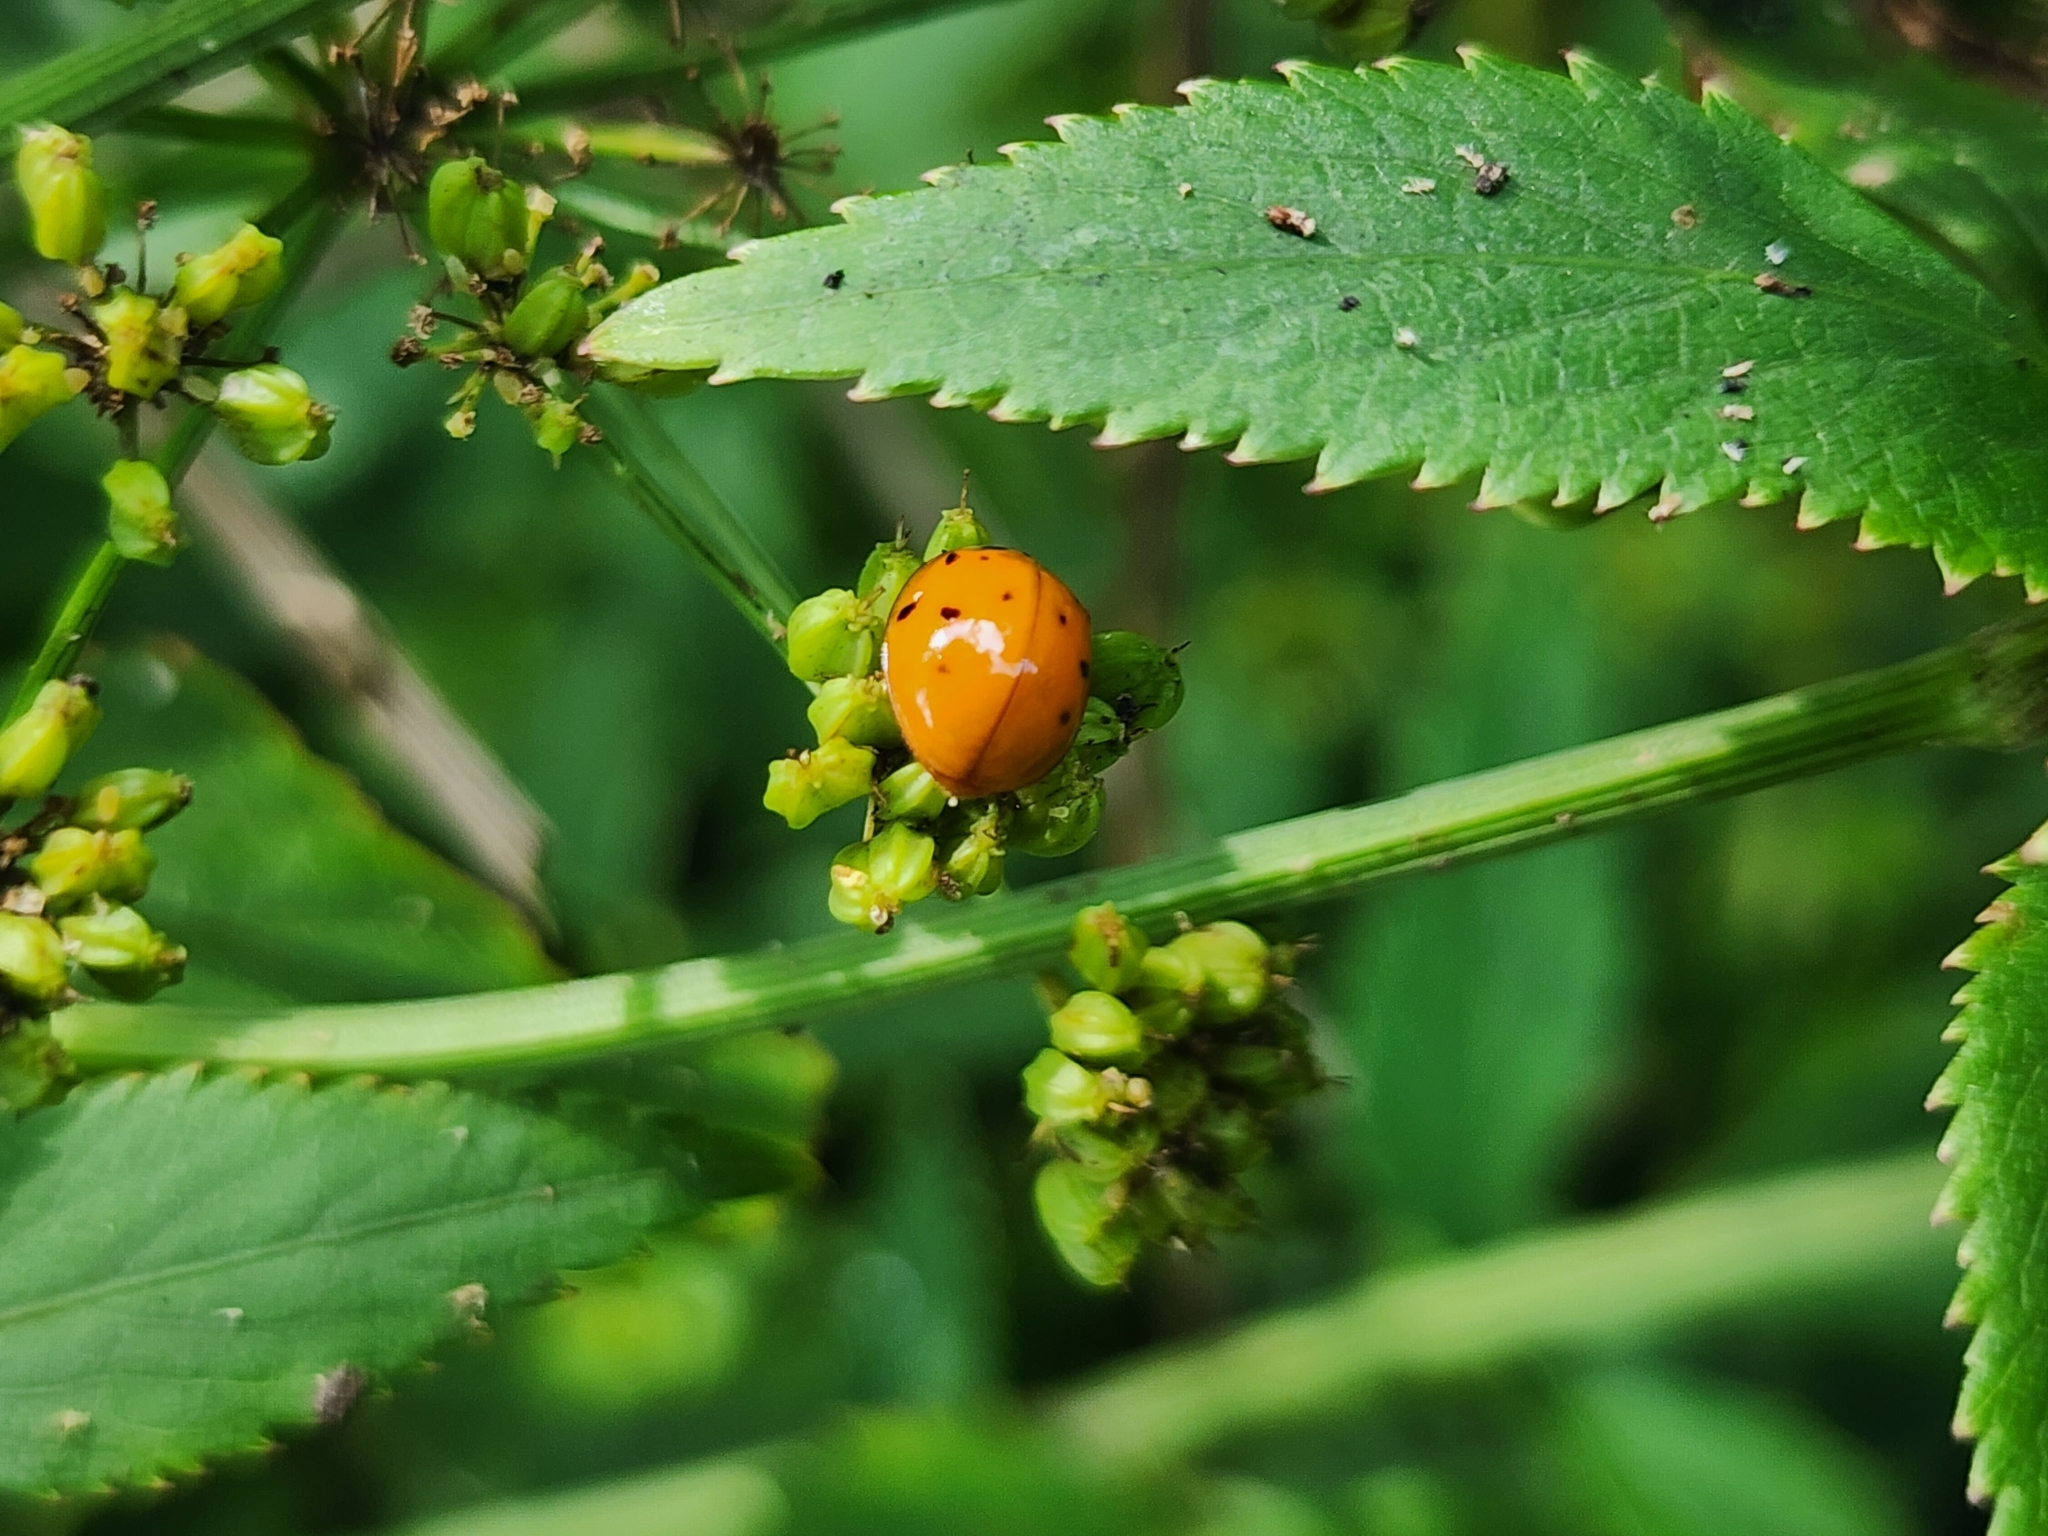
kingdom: Animalia
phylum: Arthropoda
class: Insecta
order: Coleoptera
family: Coccinellidae
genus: Harmonia
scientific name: Harmonia axyridis
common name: Harlequin ladybird
